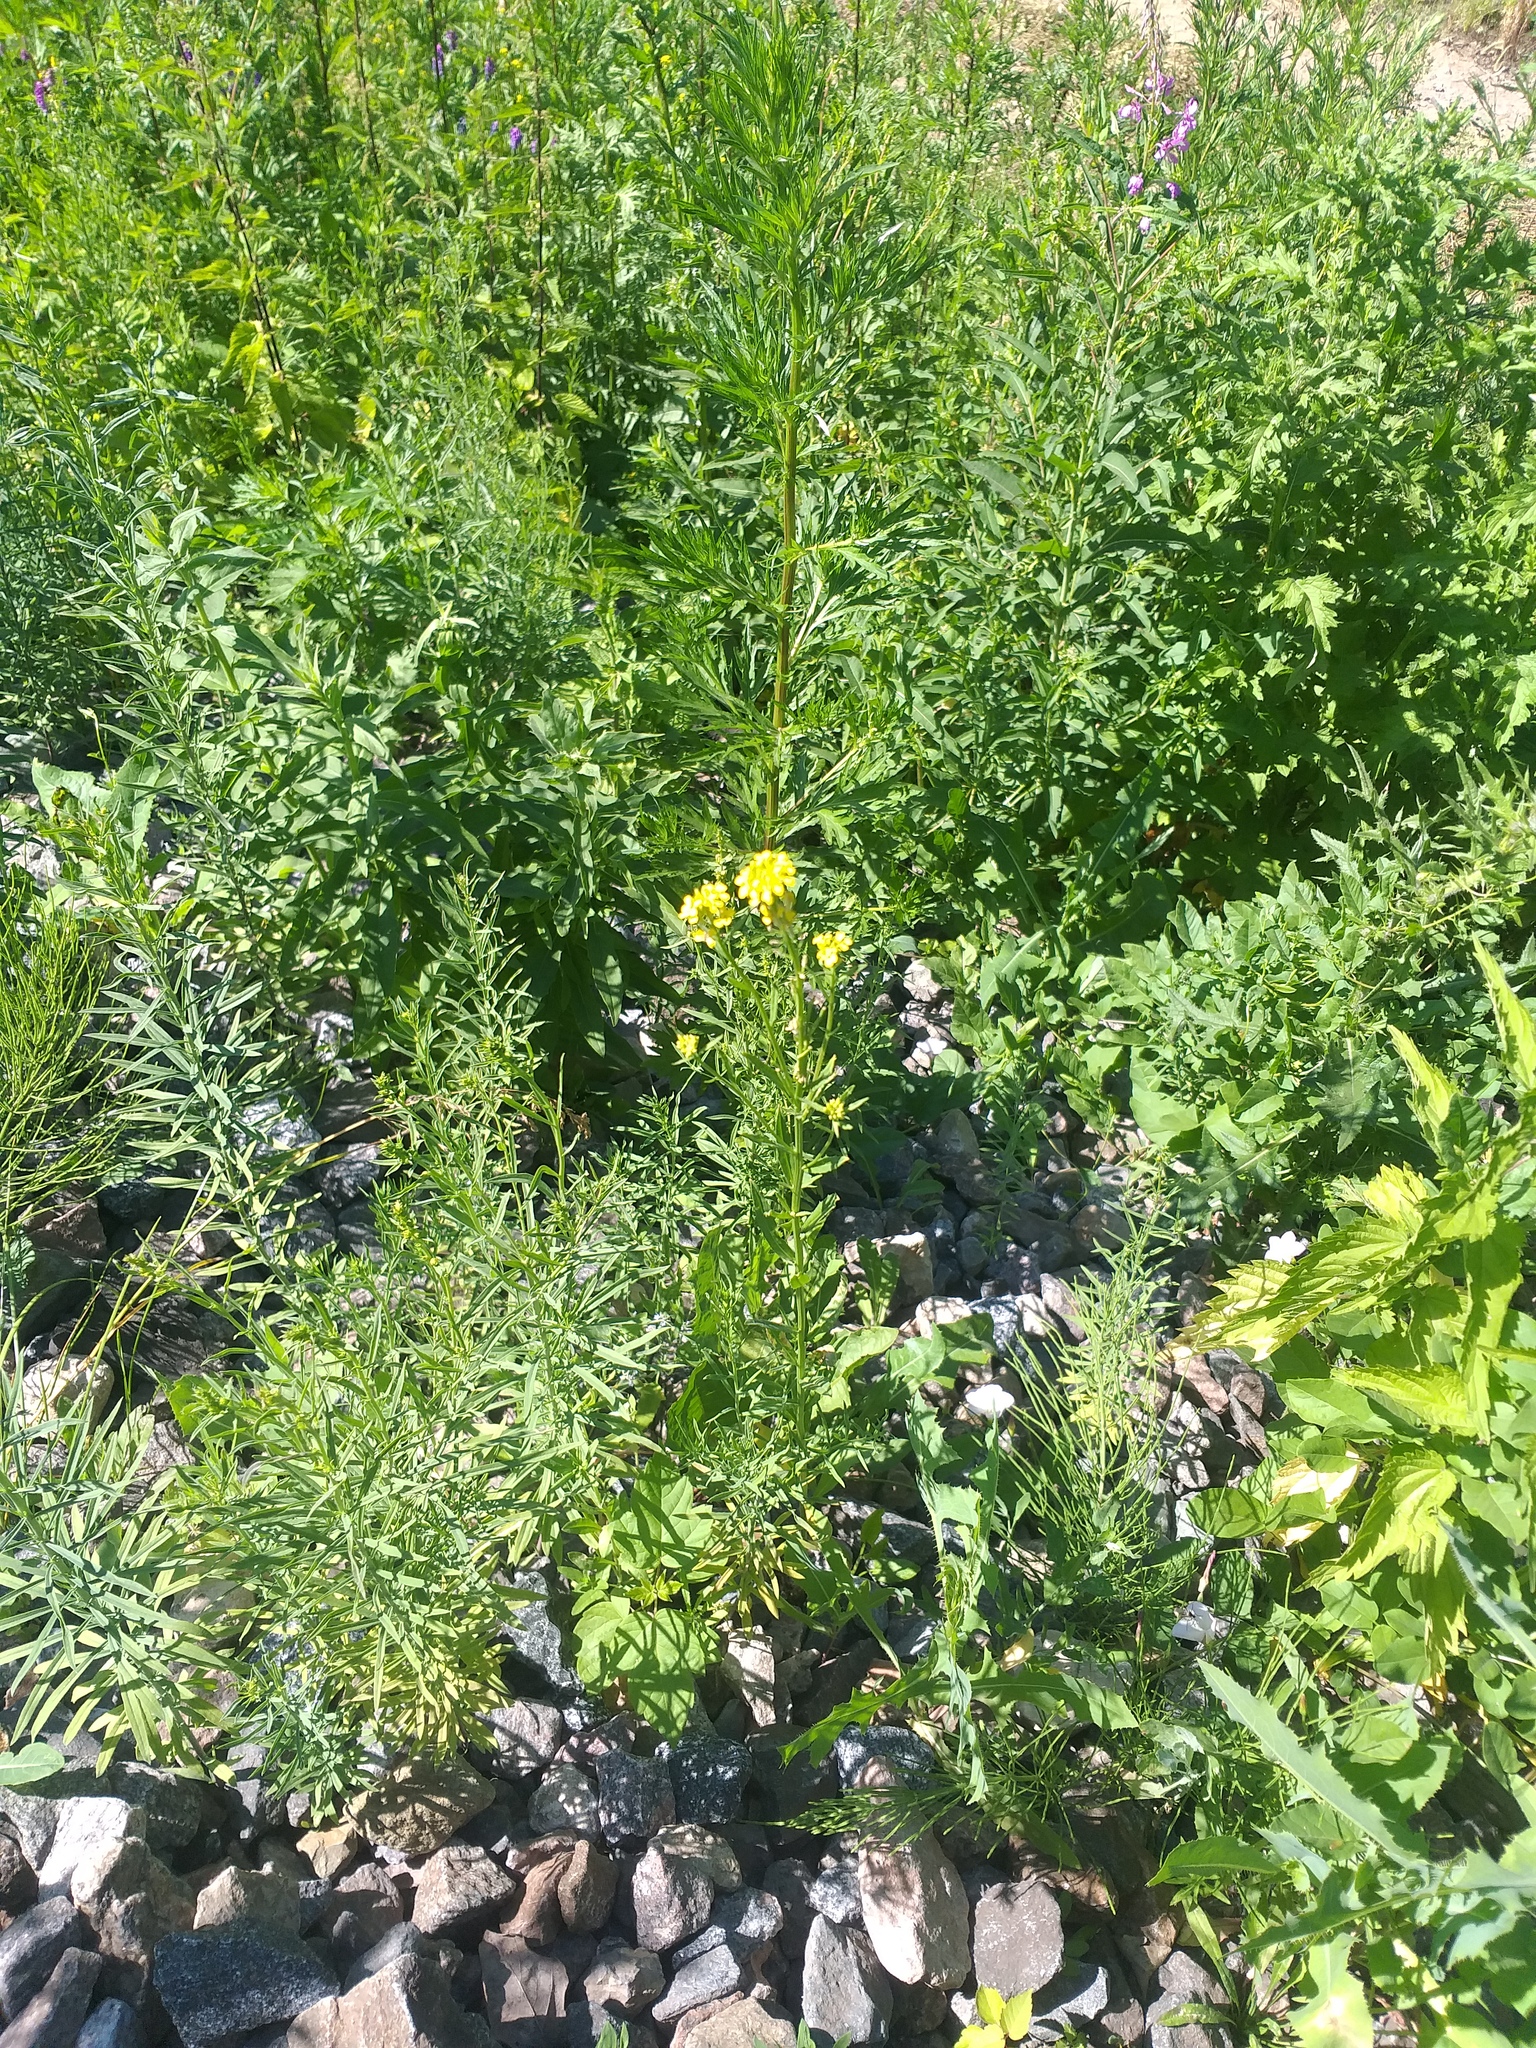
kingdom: Plantae
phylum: Tracheophyta
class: Magnoliopsida
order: Brassicales
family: Brassicaceae
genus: Erysimum
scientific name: Erysimum hieraciifolium
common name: European wallflower
